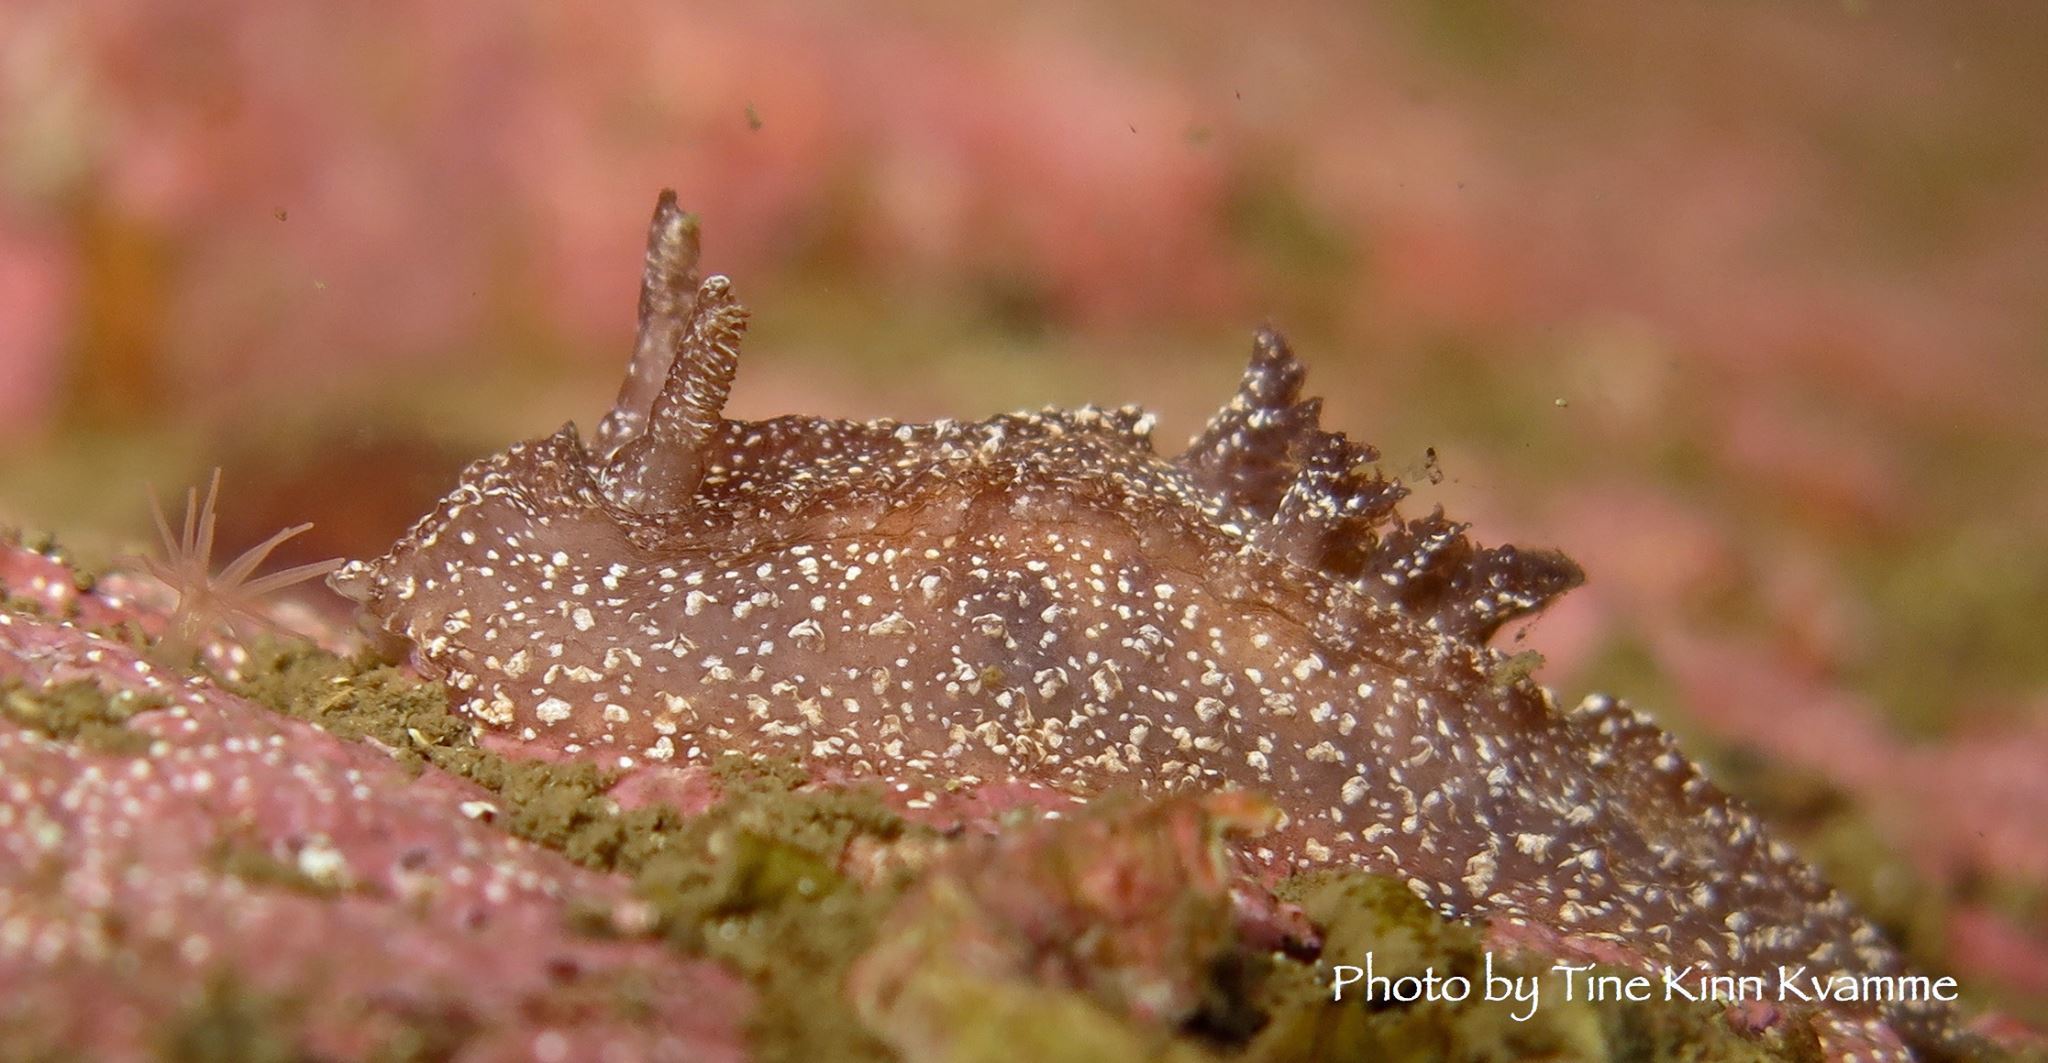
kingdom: Animalia
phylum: Mollusca
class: Gastropoda
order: Nudibranchia
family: Goniodorididae
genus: Pelagella
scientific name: Pelagella castanea
